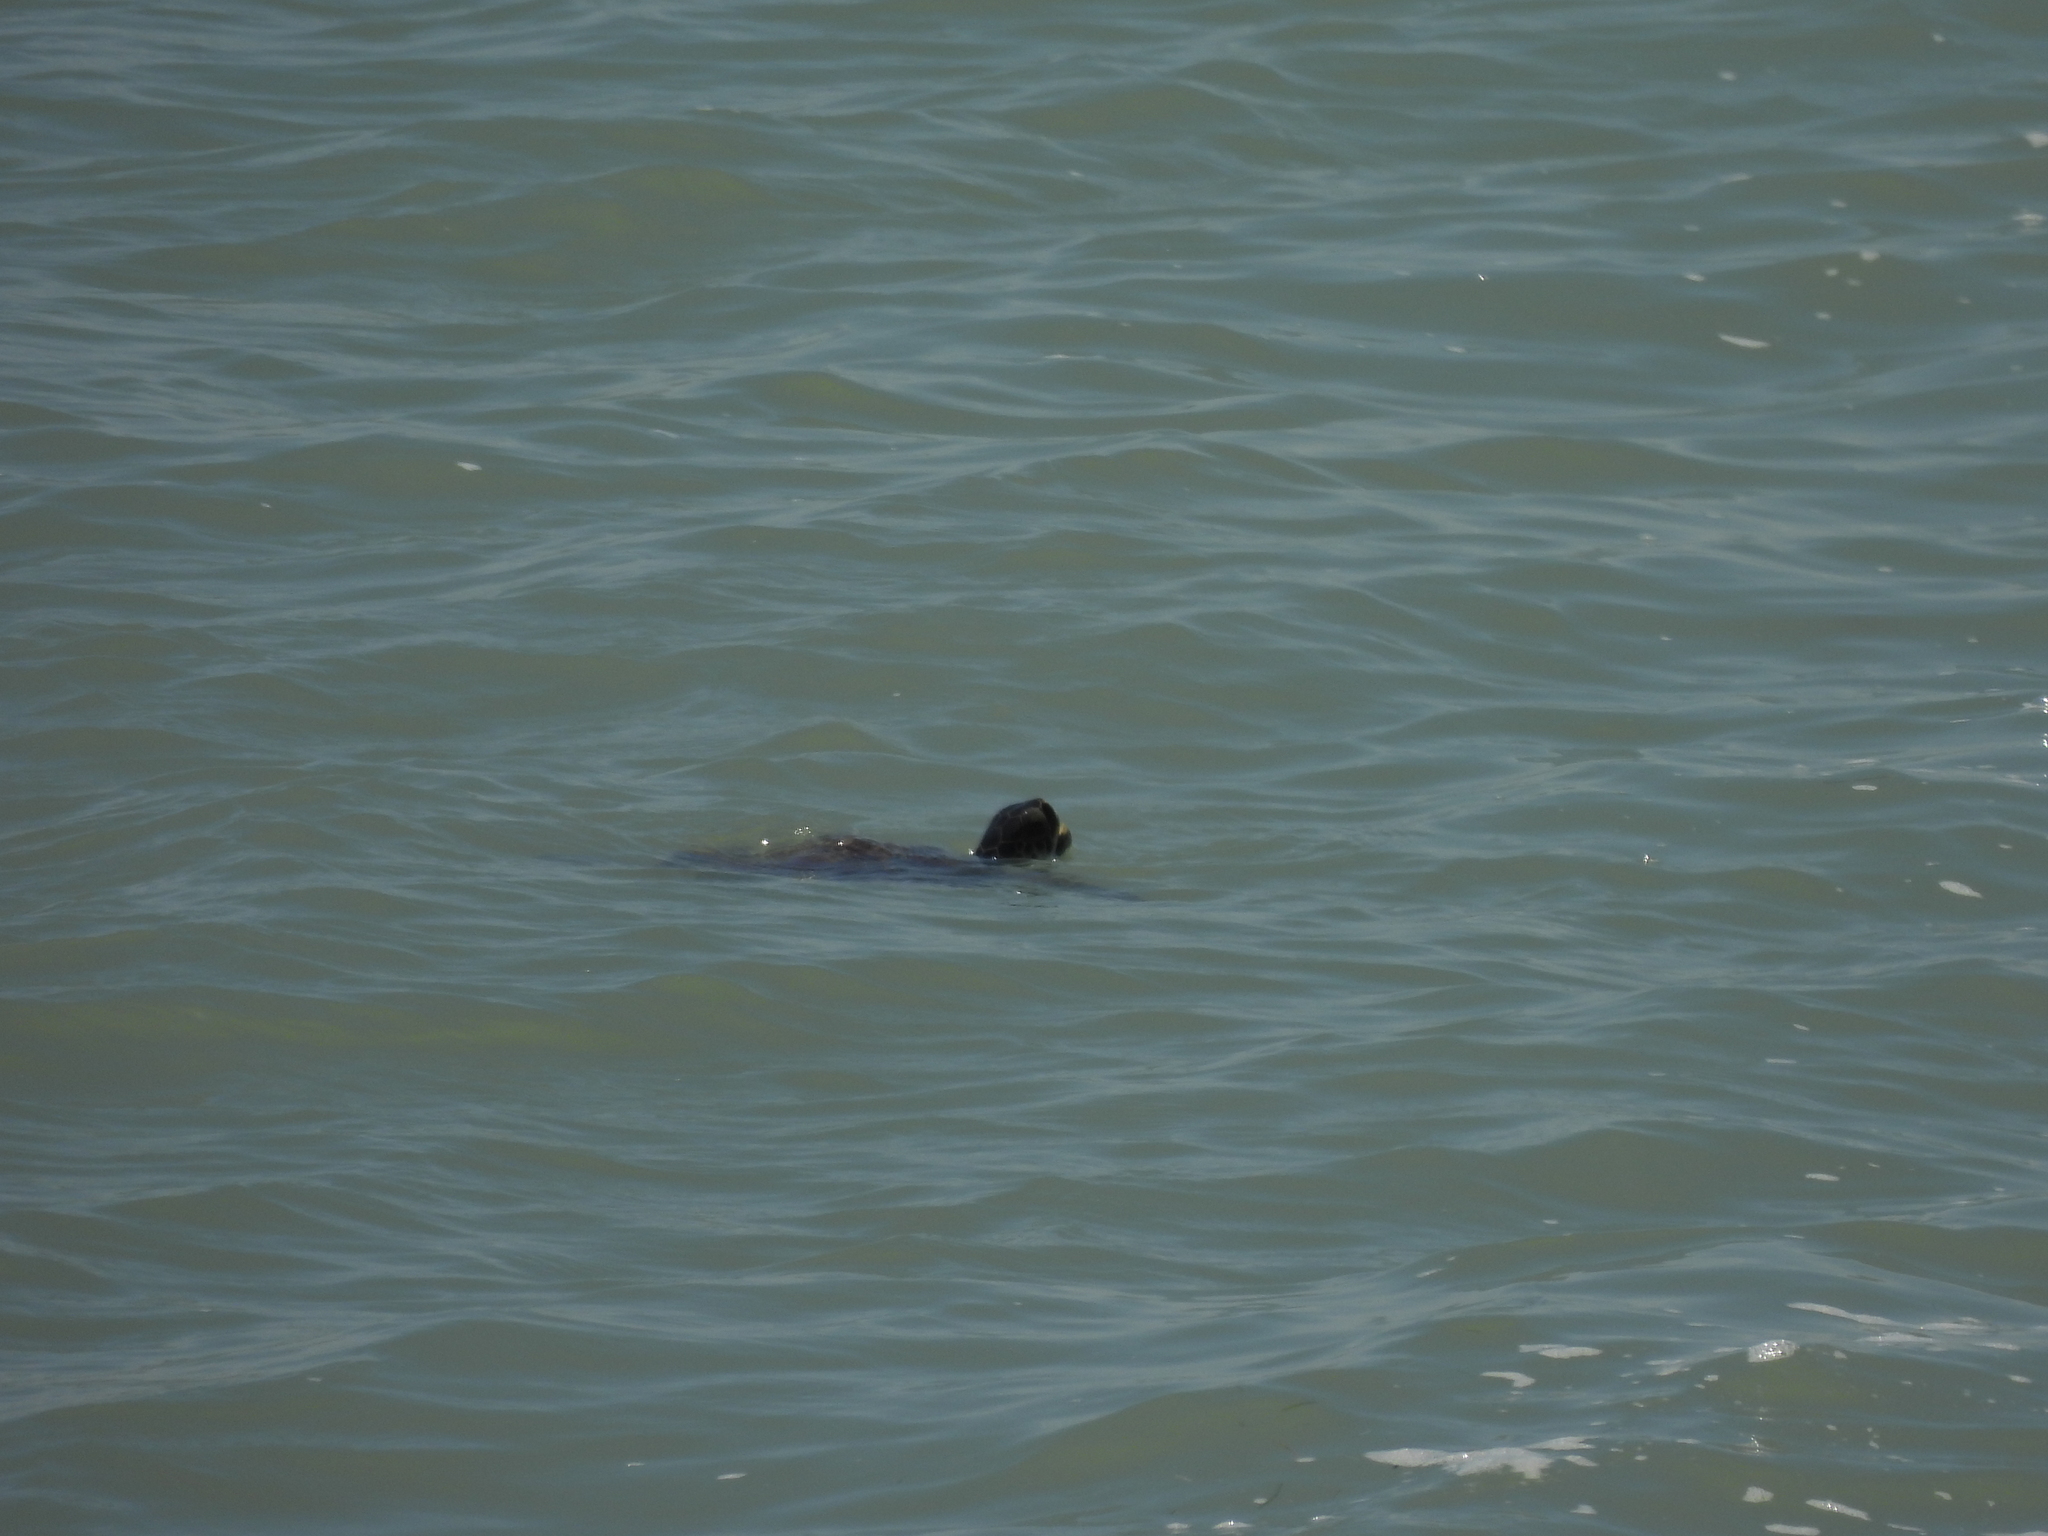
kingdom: Animalia
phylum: Chordata
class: Testudines
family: Cheloniidae
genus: Chelonia
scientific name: Chelonia mydas
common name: Green turtle
